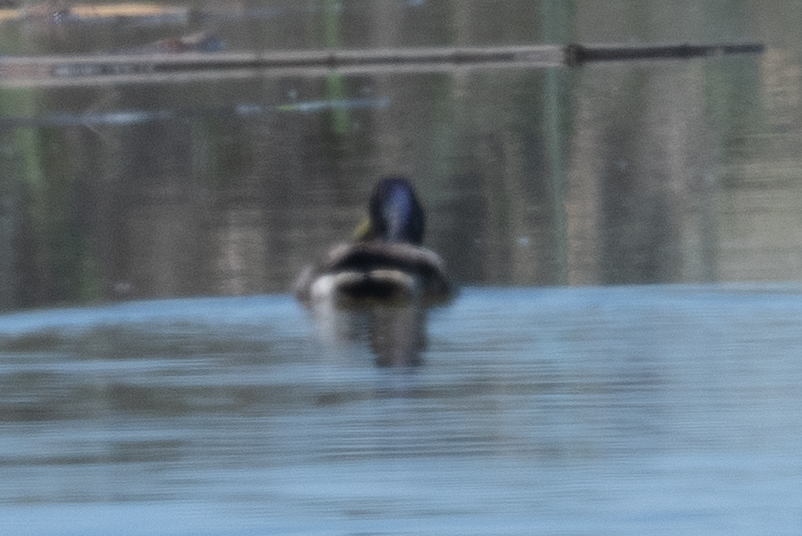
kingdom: Animalia
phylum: Chordata
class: Aves
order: Anseriformes
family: Anatidae
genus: Anas
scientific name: Anas platyrhynchos
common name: Mallard
